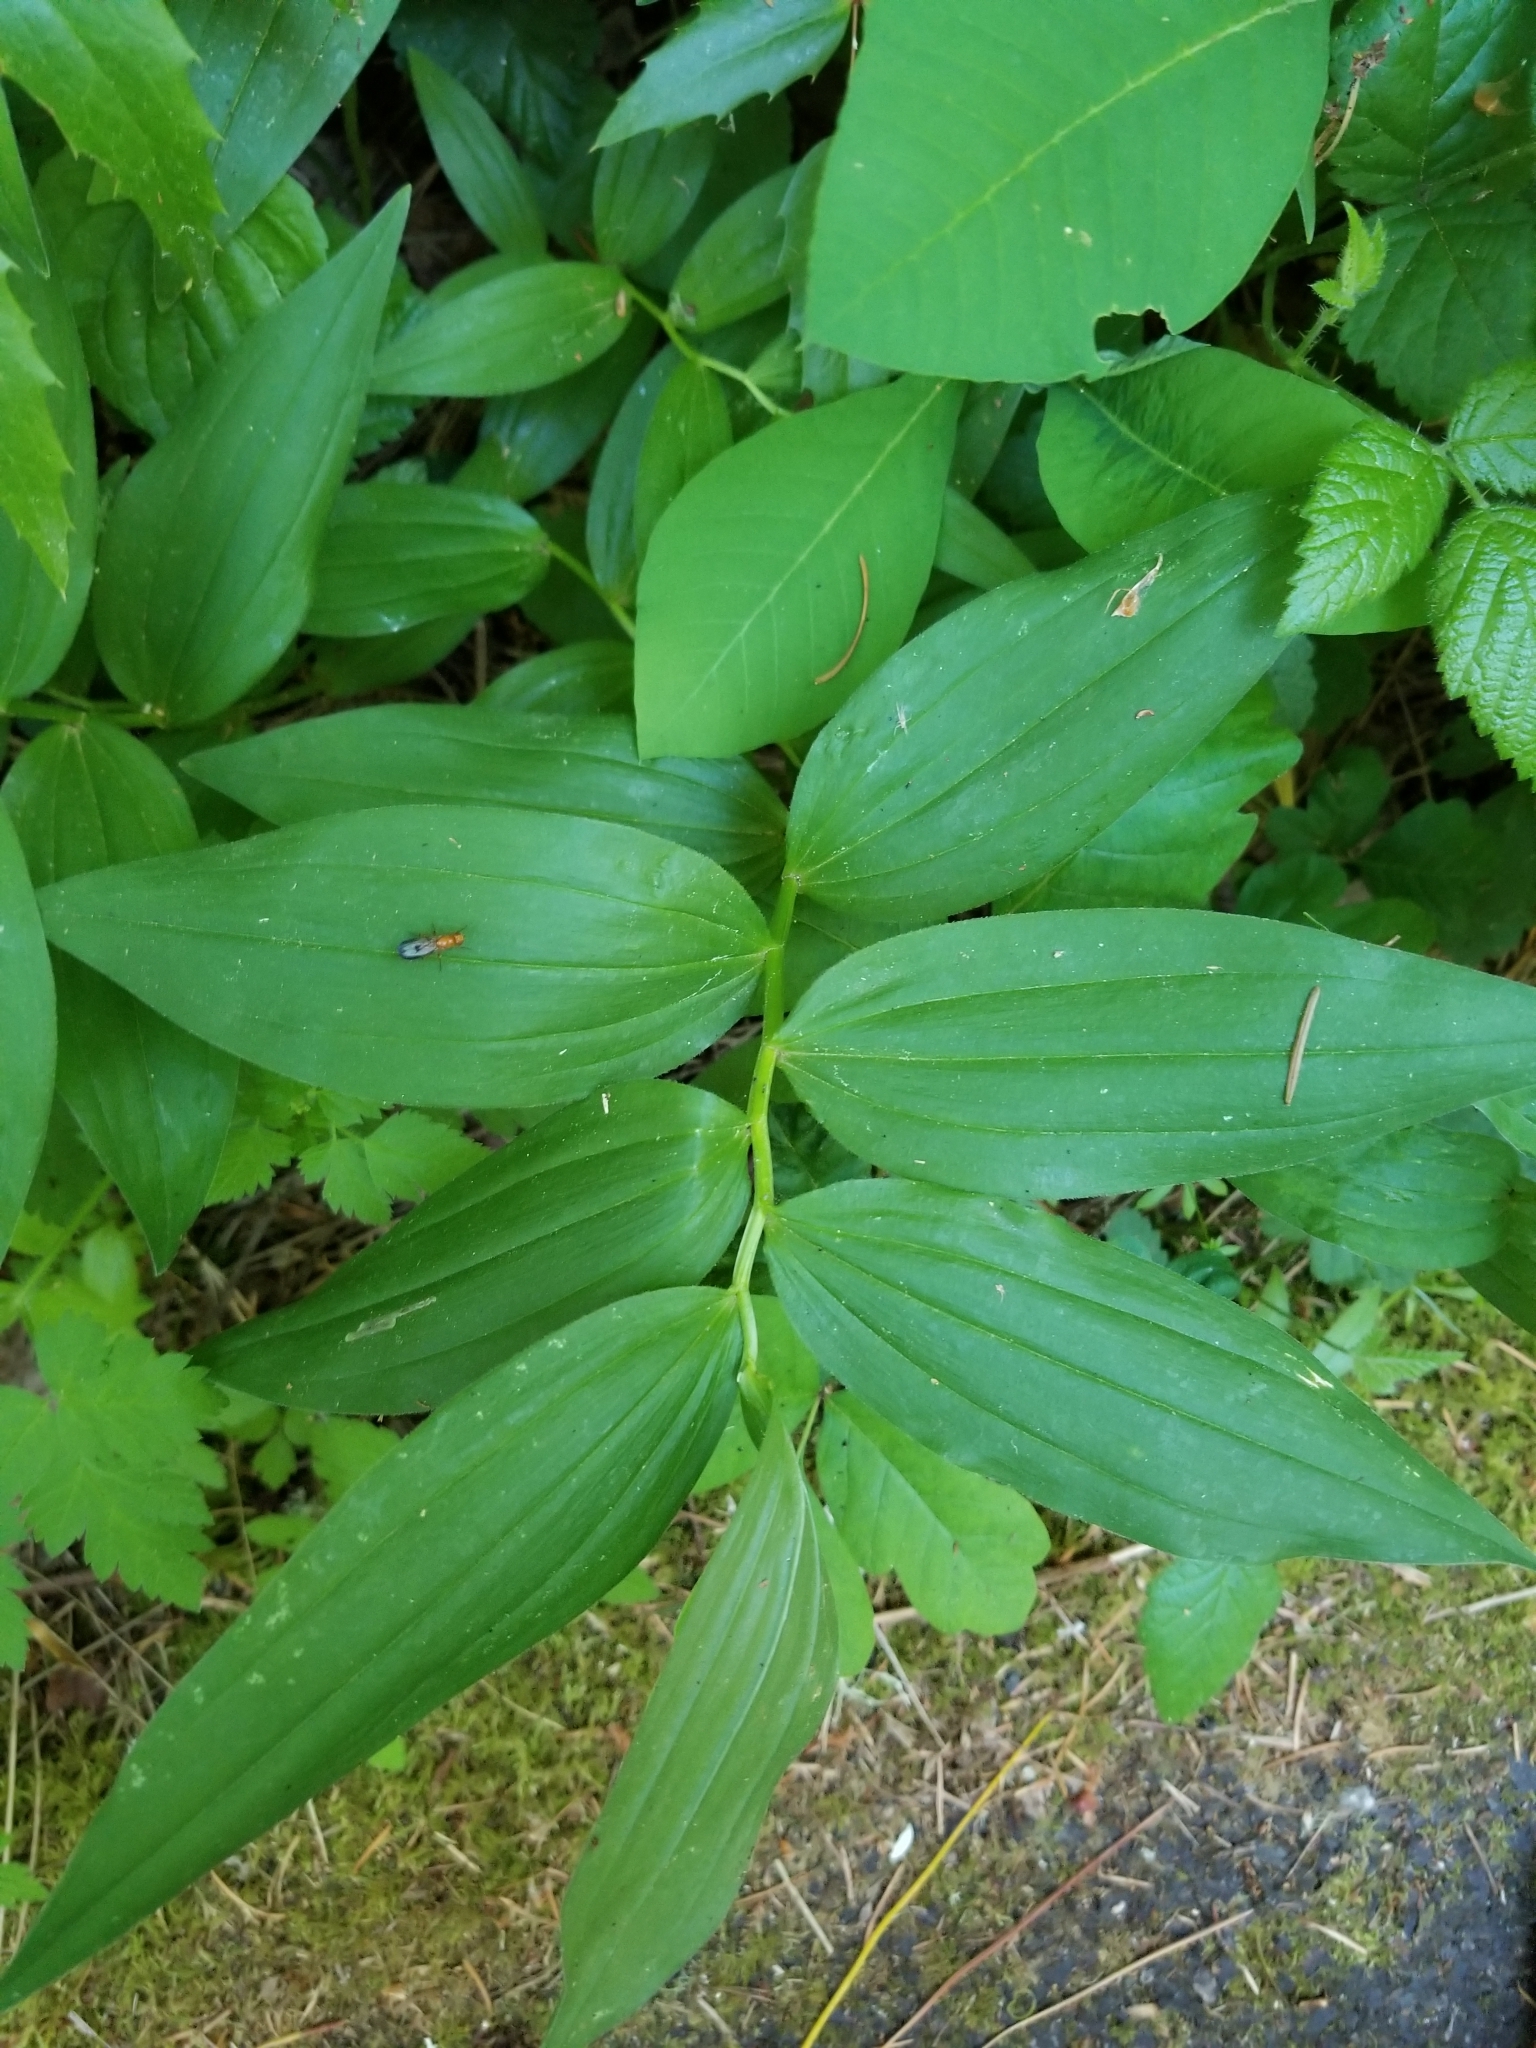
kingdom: Plantae
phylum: Tracheophyta
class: Liliopsida
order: Asparagales
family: Asparagaceae
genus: Maianthemum
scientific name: Maianthemum stellatum
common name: Little false solomon's seal
